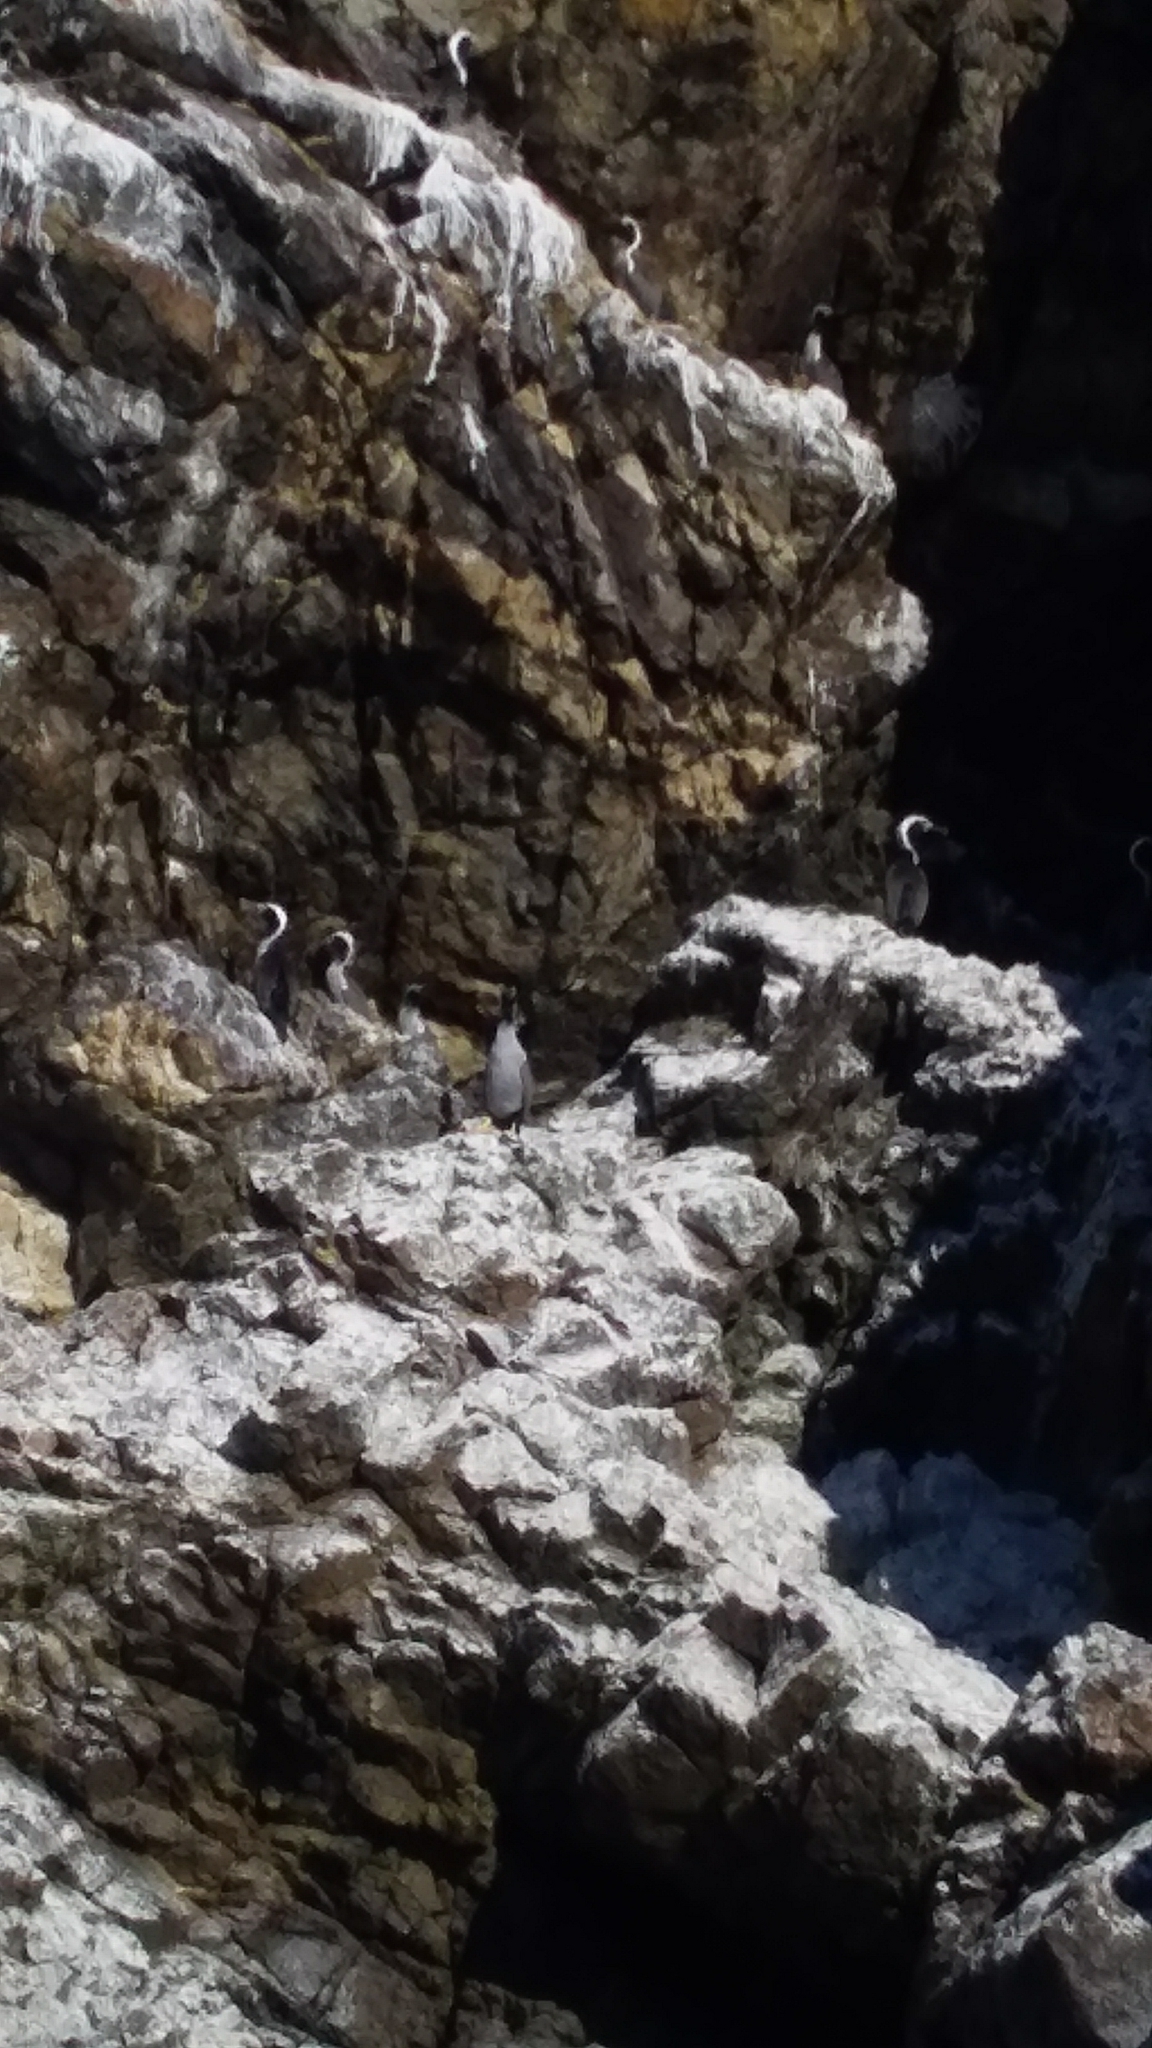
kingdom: Animalia
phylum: Chordata
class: Aves
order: Suliformes
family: Phalacrocoracidae
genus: Phalacrocorax
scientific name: Phalacrocorax punctatus
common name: Spotted shag
